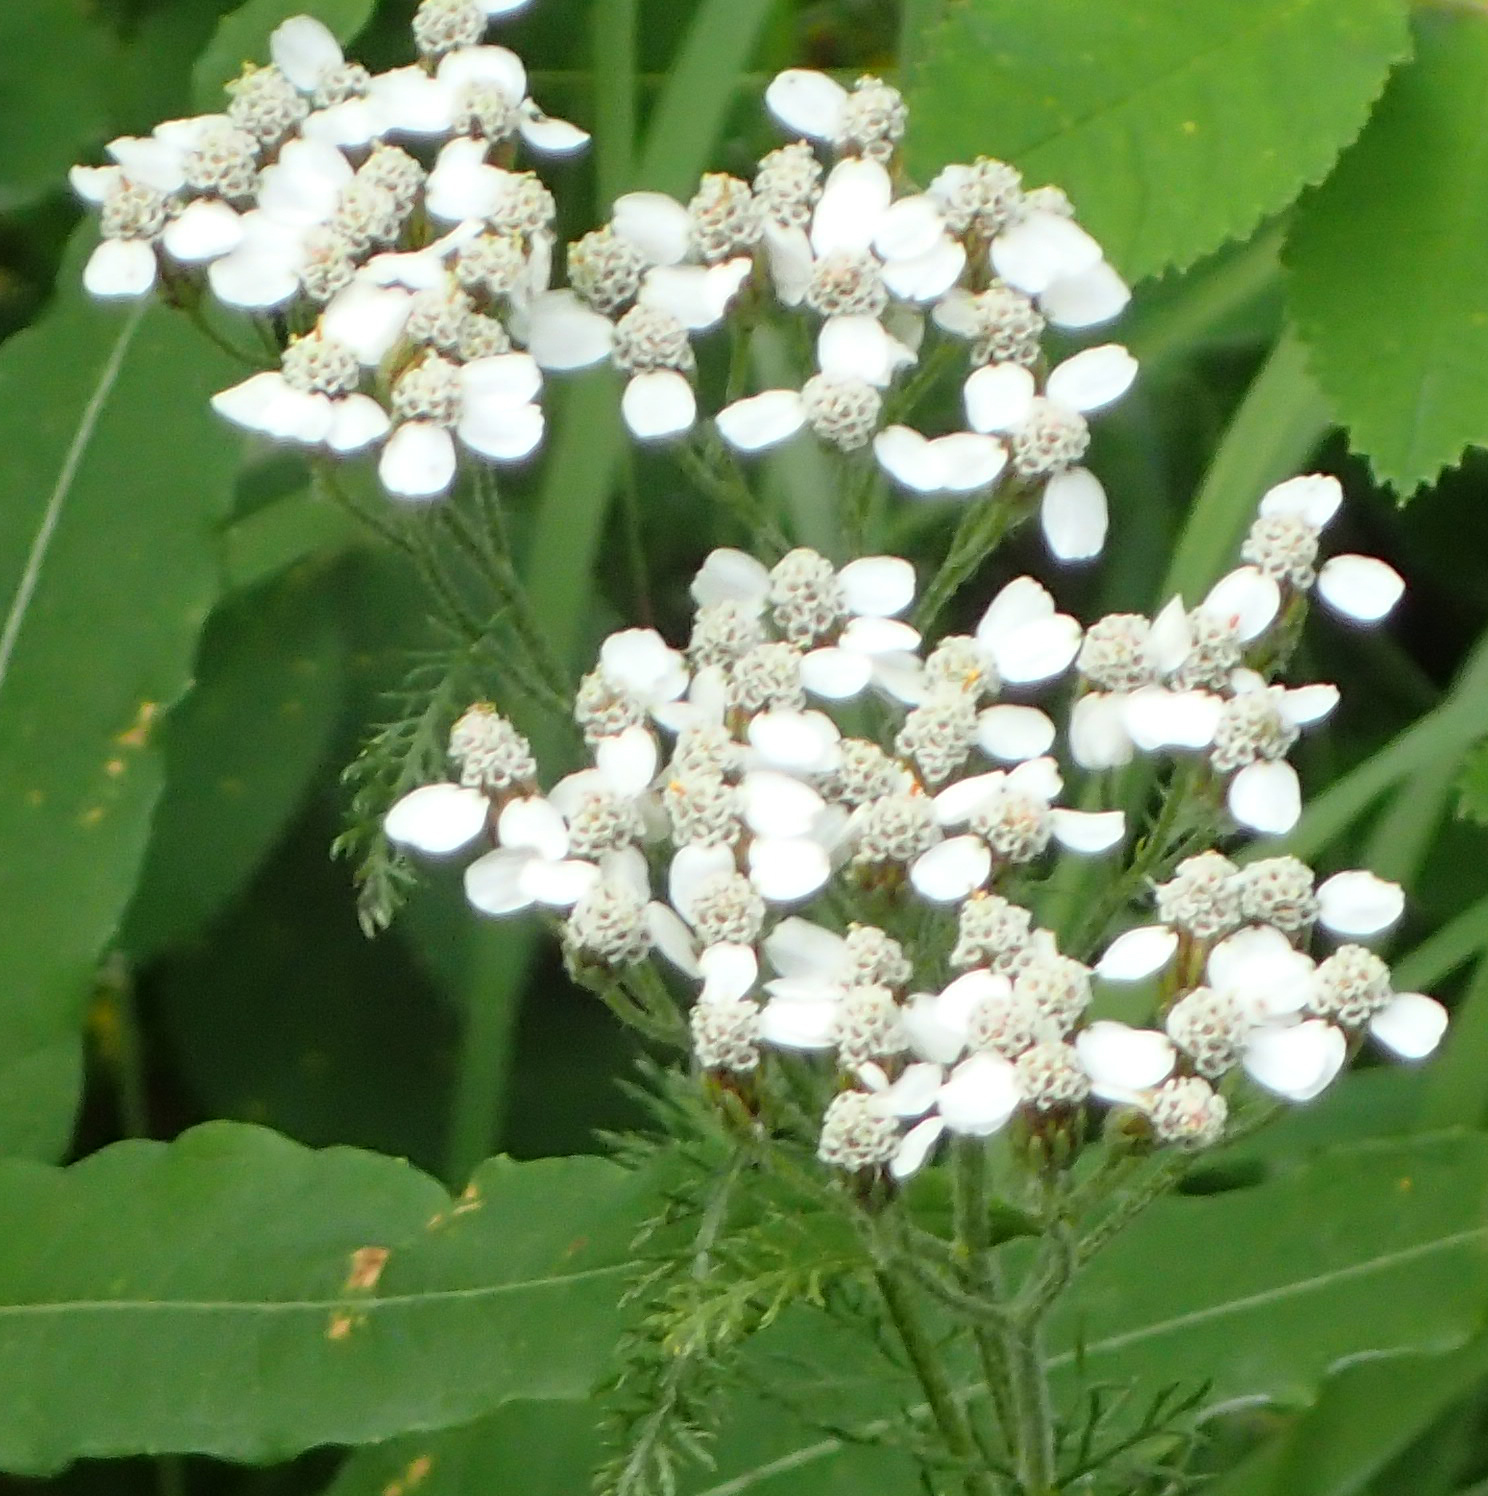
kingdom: Plantae
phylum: Tracheophyta
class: Magnoliopsida
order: Asterales
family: Asteraceae
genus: Achillea
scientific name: Achillea millefolium
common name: Yarrow
